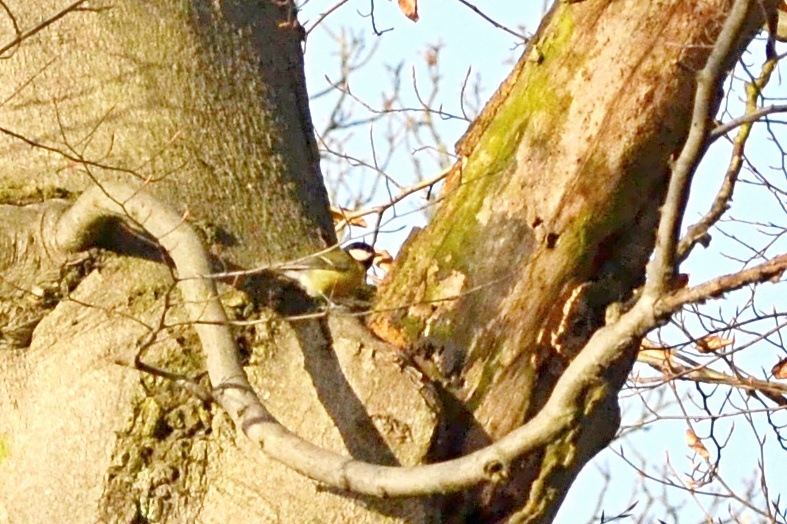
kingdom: Animalia
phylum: Chordata
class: Aves
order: Passeriformes
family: Paridae
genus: Parus
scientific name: Parus major
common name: Great tit
